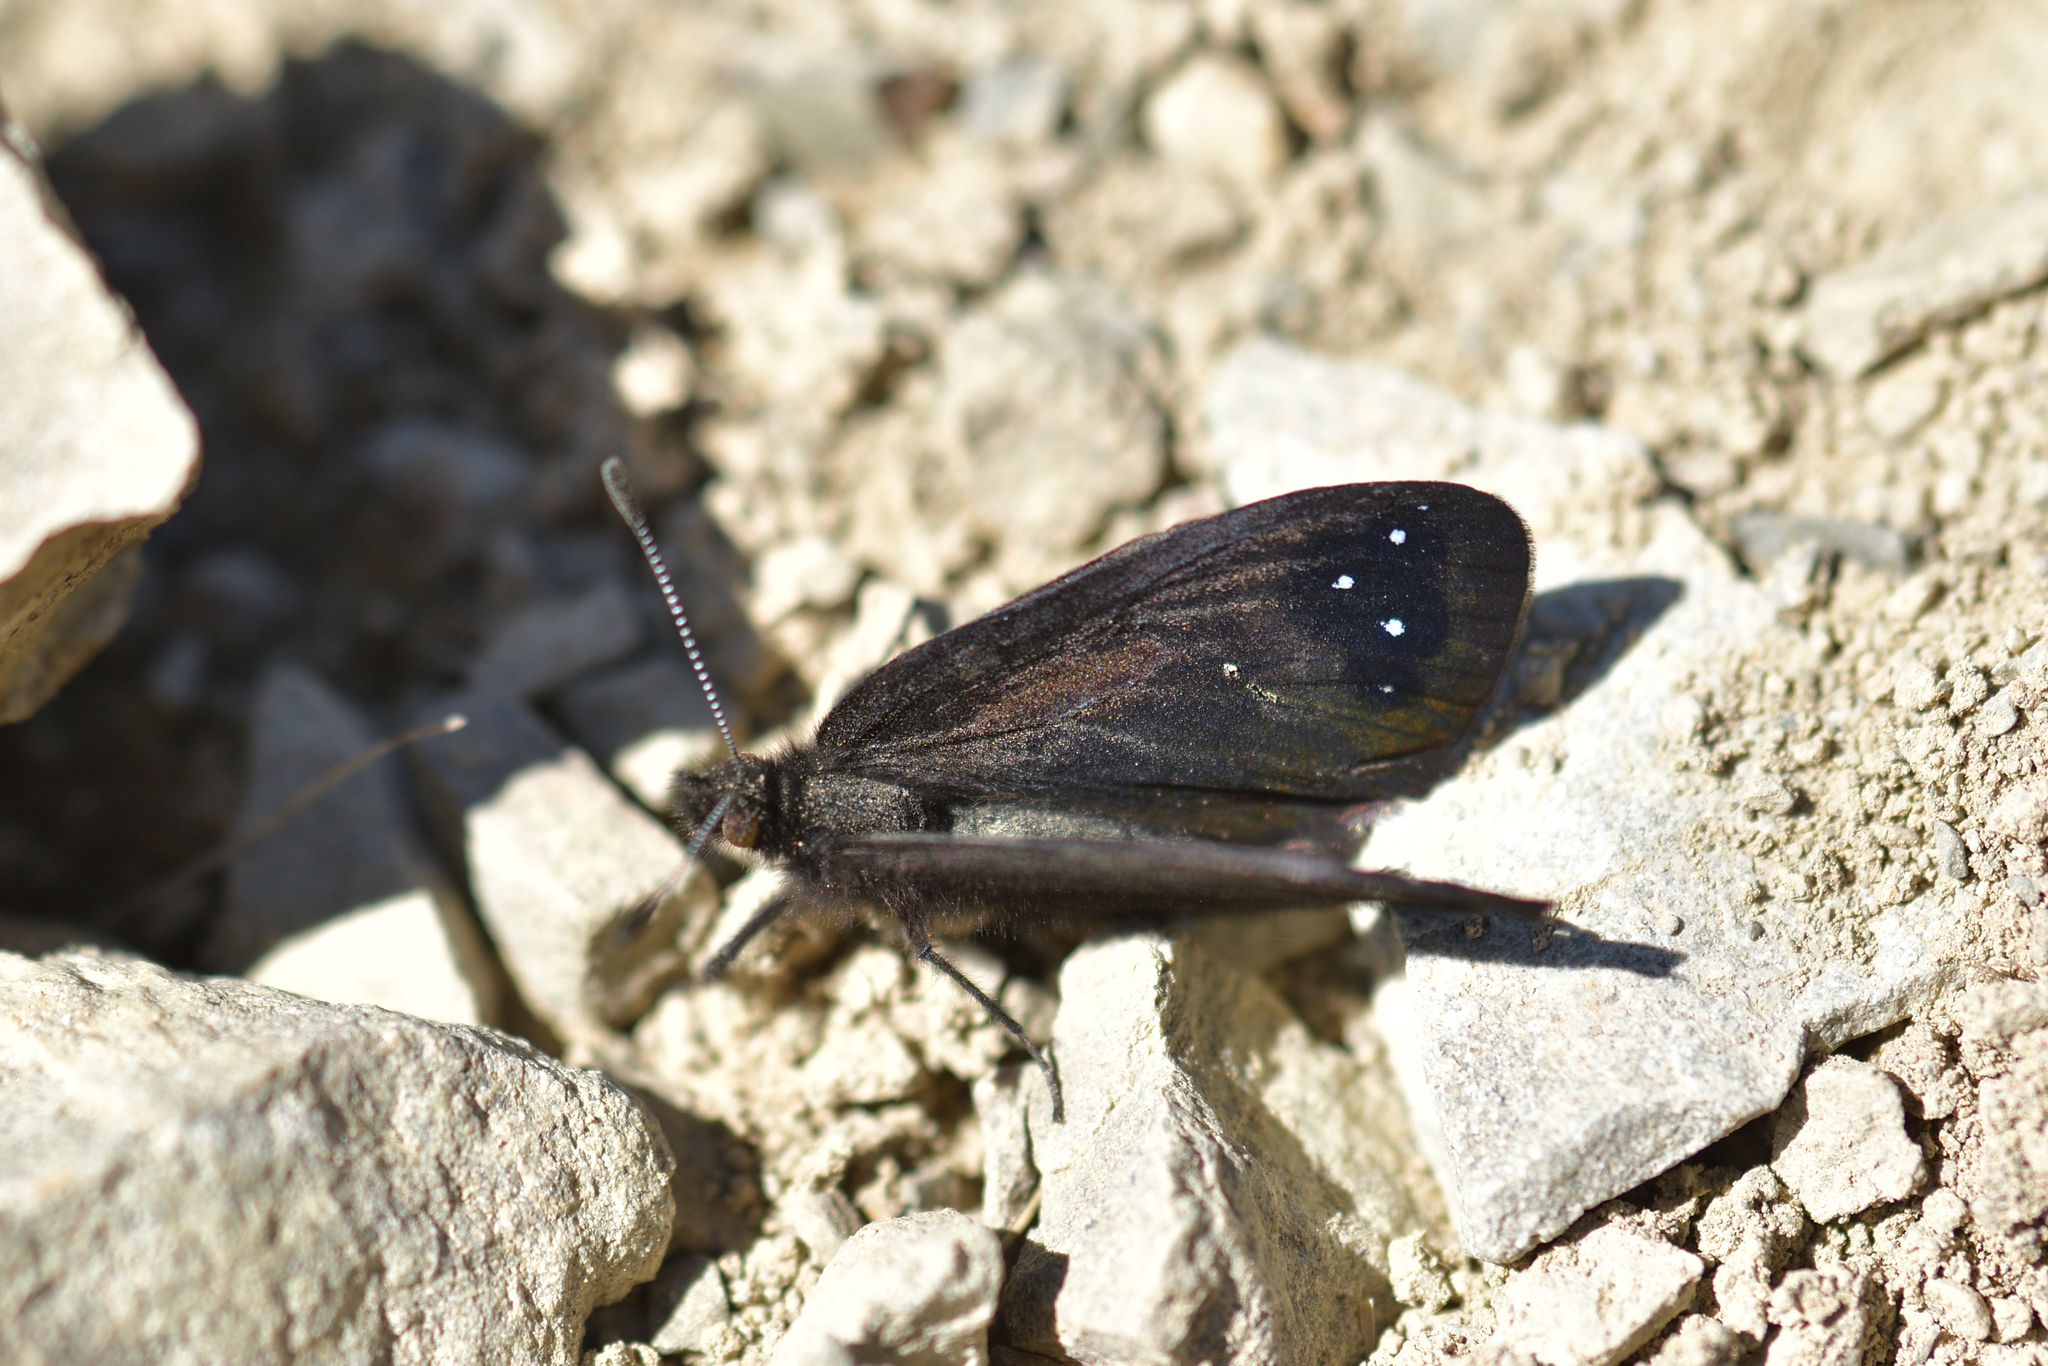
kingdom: Animalia
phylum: Arthropoda
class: Insecta
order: Lepidoptera
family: Nymphalidae
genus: Erebia
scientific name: Erebia Percnodaimon merula
